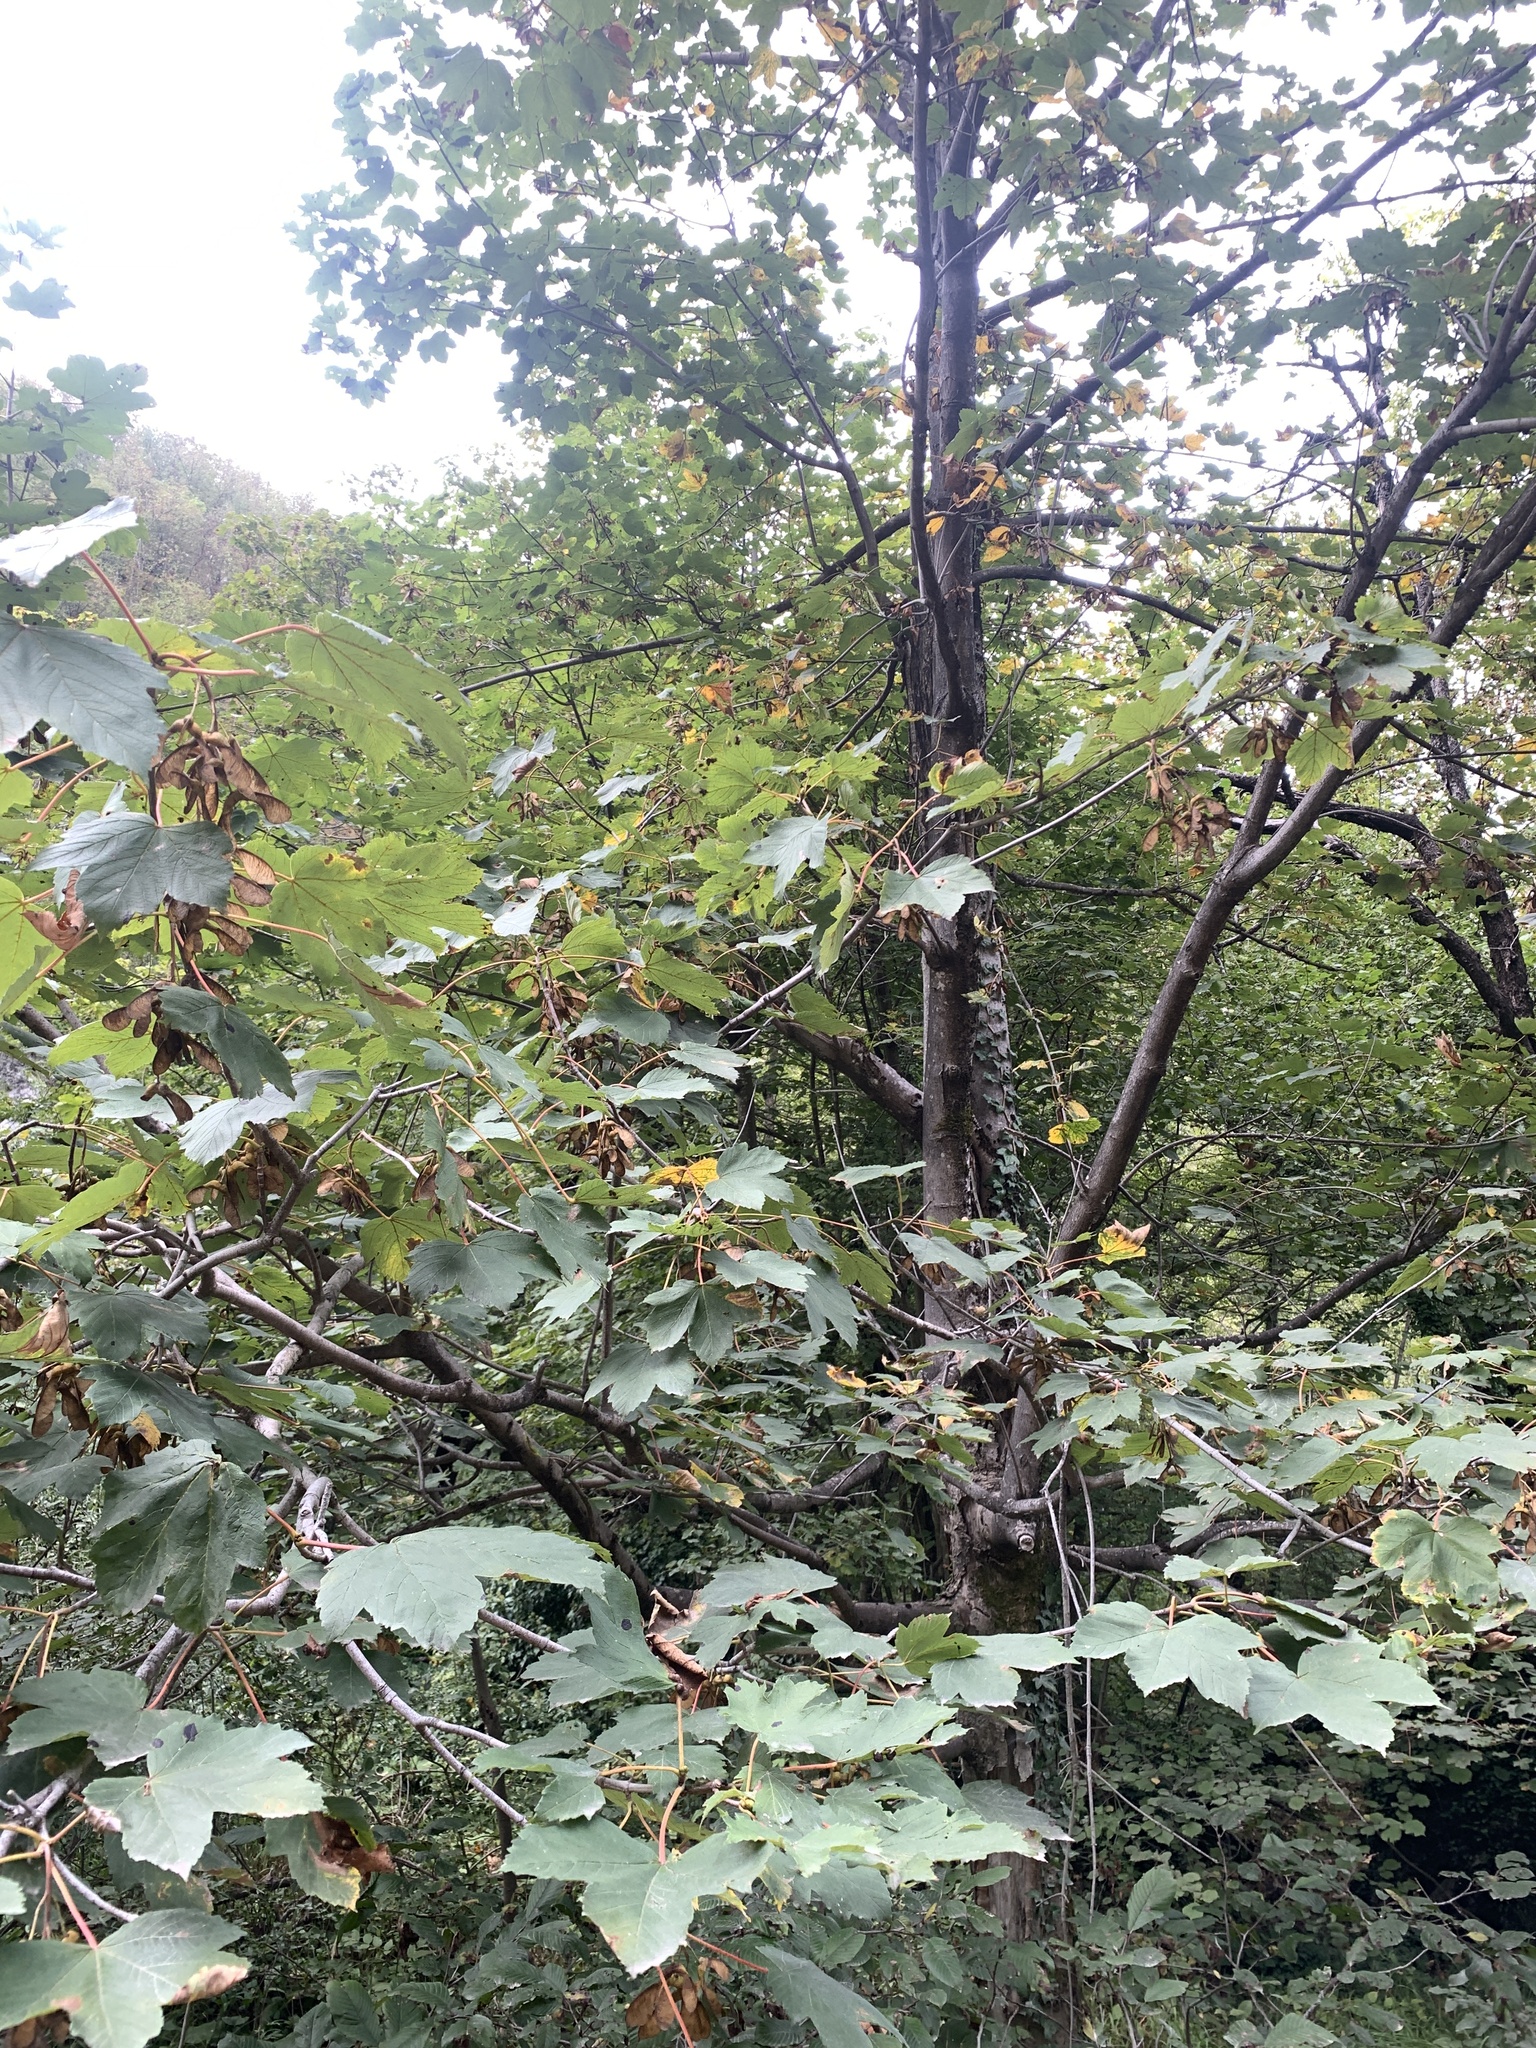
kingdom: Plantae
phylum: Tracheophyta
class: Magnoliopsida
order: Sapindales
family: Sapindaceae
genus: Acer
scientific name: Acer pseudoplatanus
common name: Sycamore
